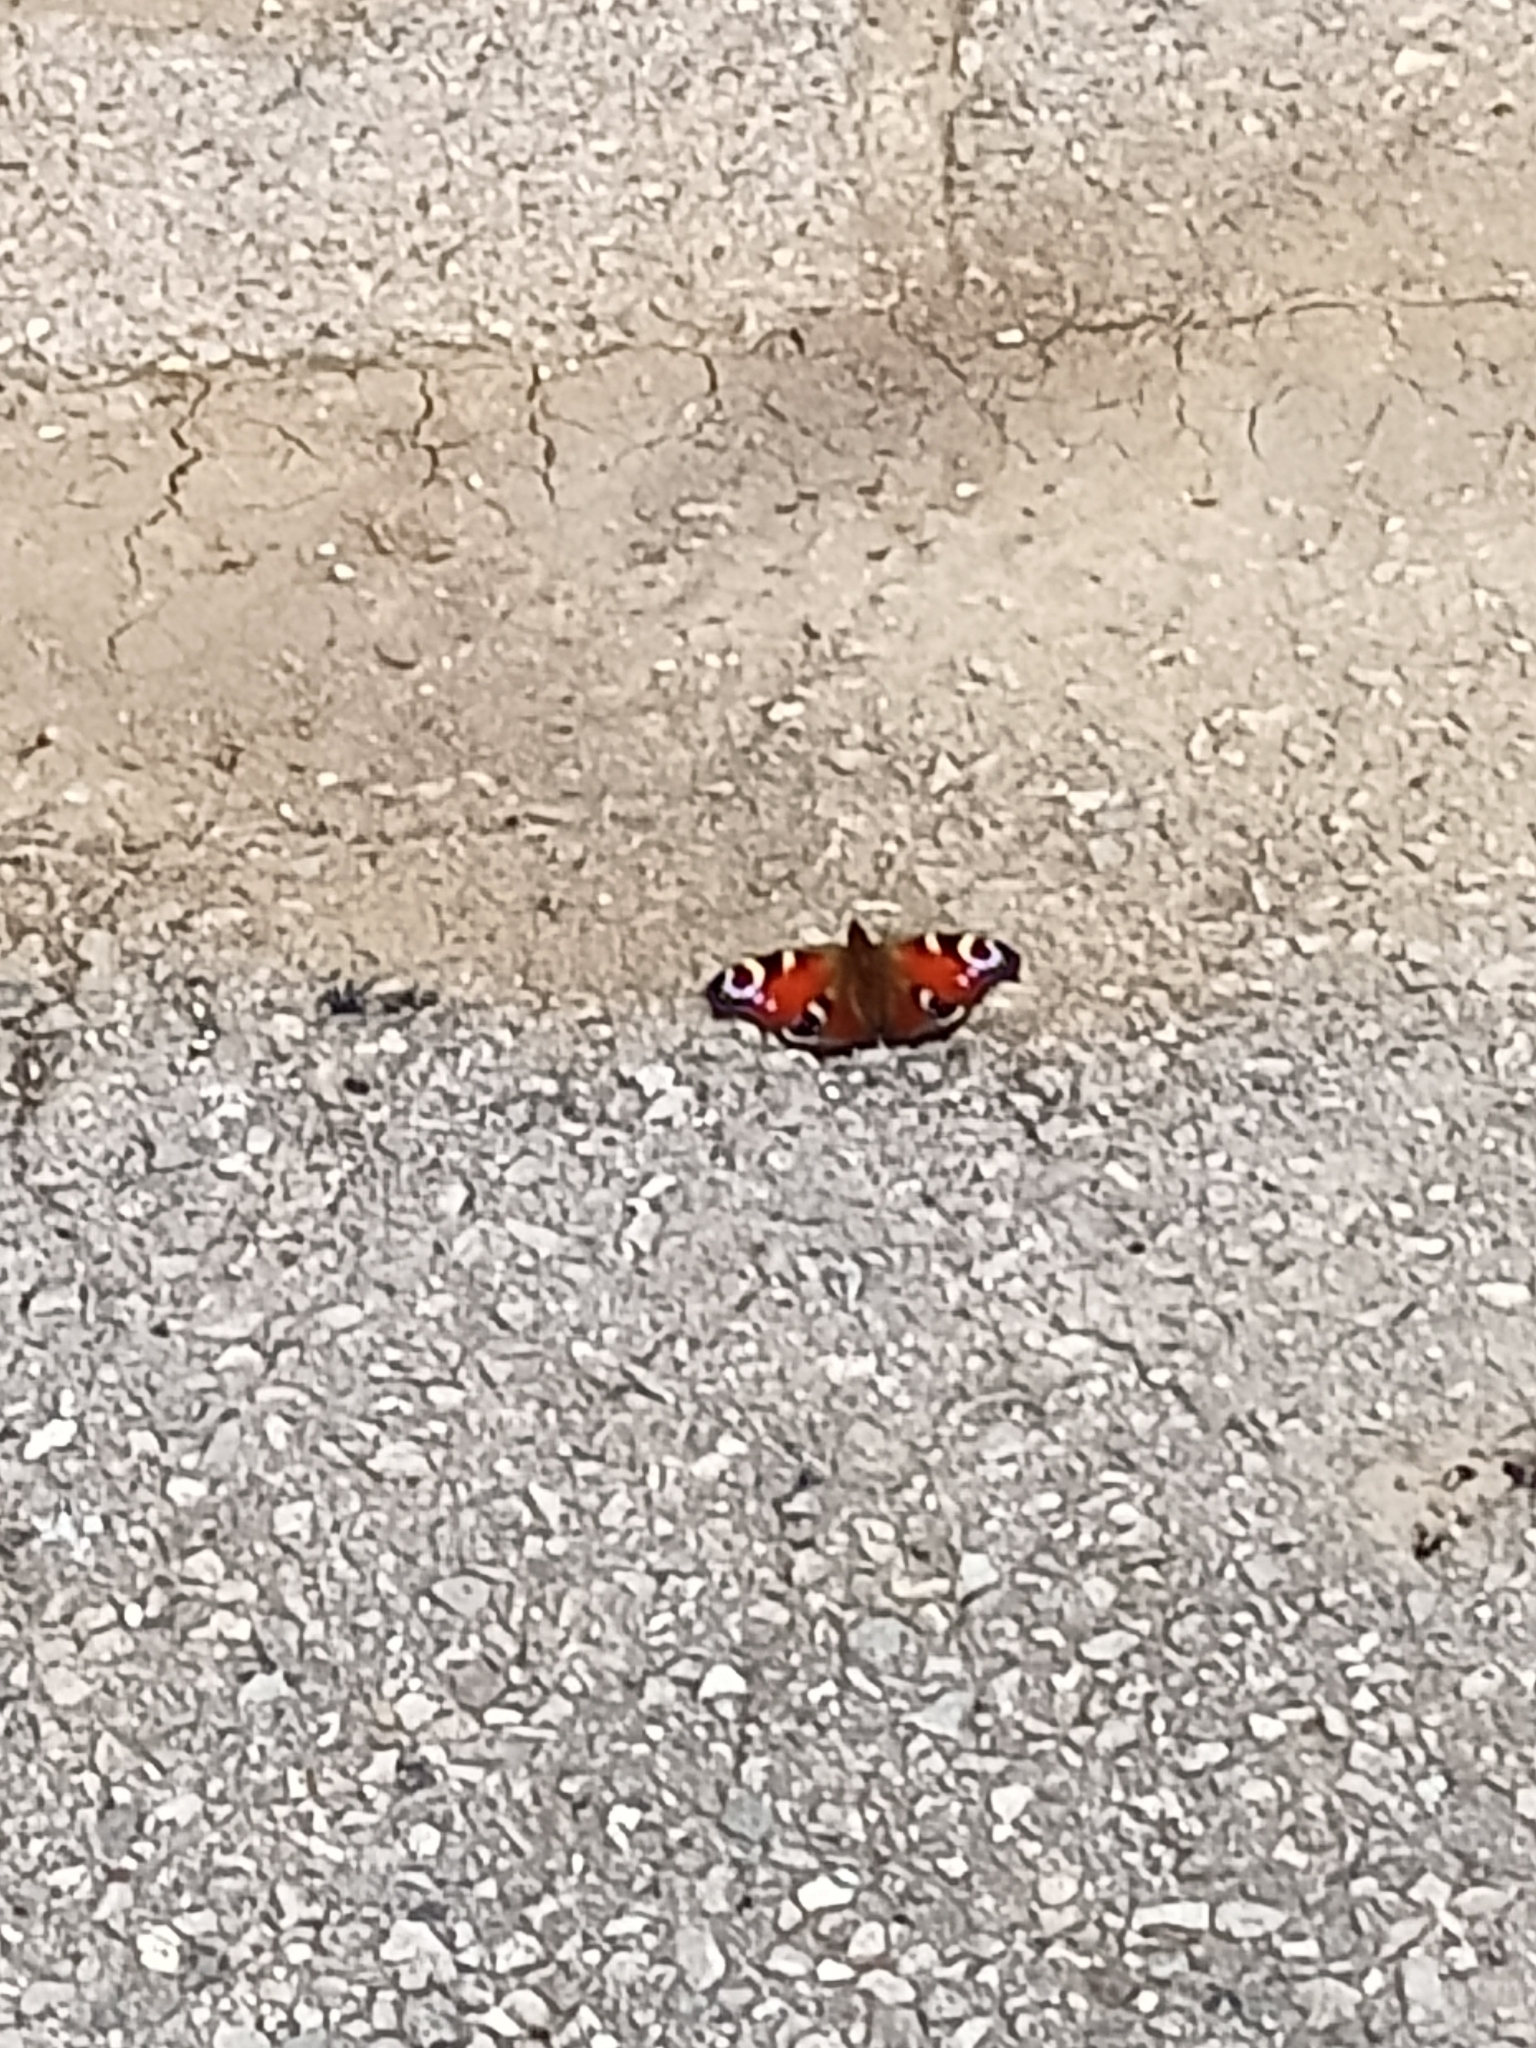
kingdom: Animalia
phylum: Arthropoda
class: Insecta
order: Lepidoptera
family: Nymphalidae
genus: Aglais
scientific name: Aglais io
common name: Peacock
